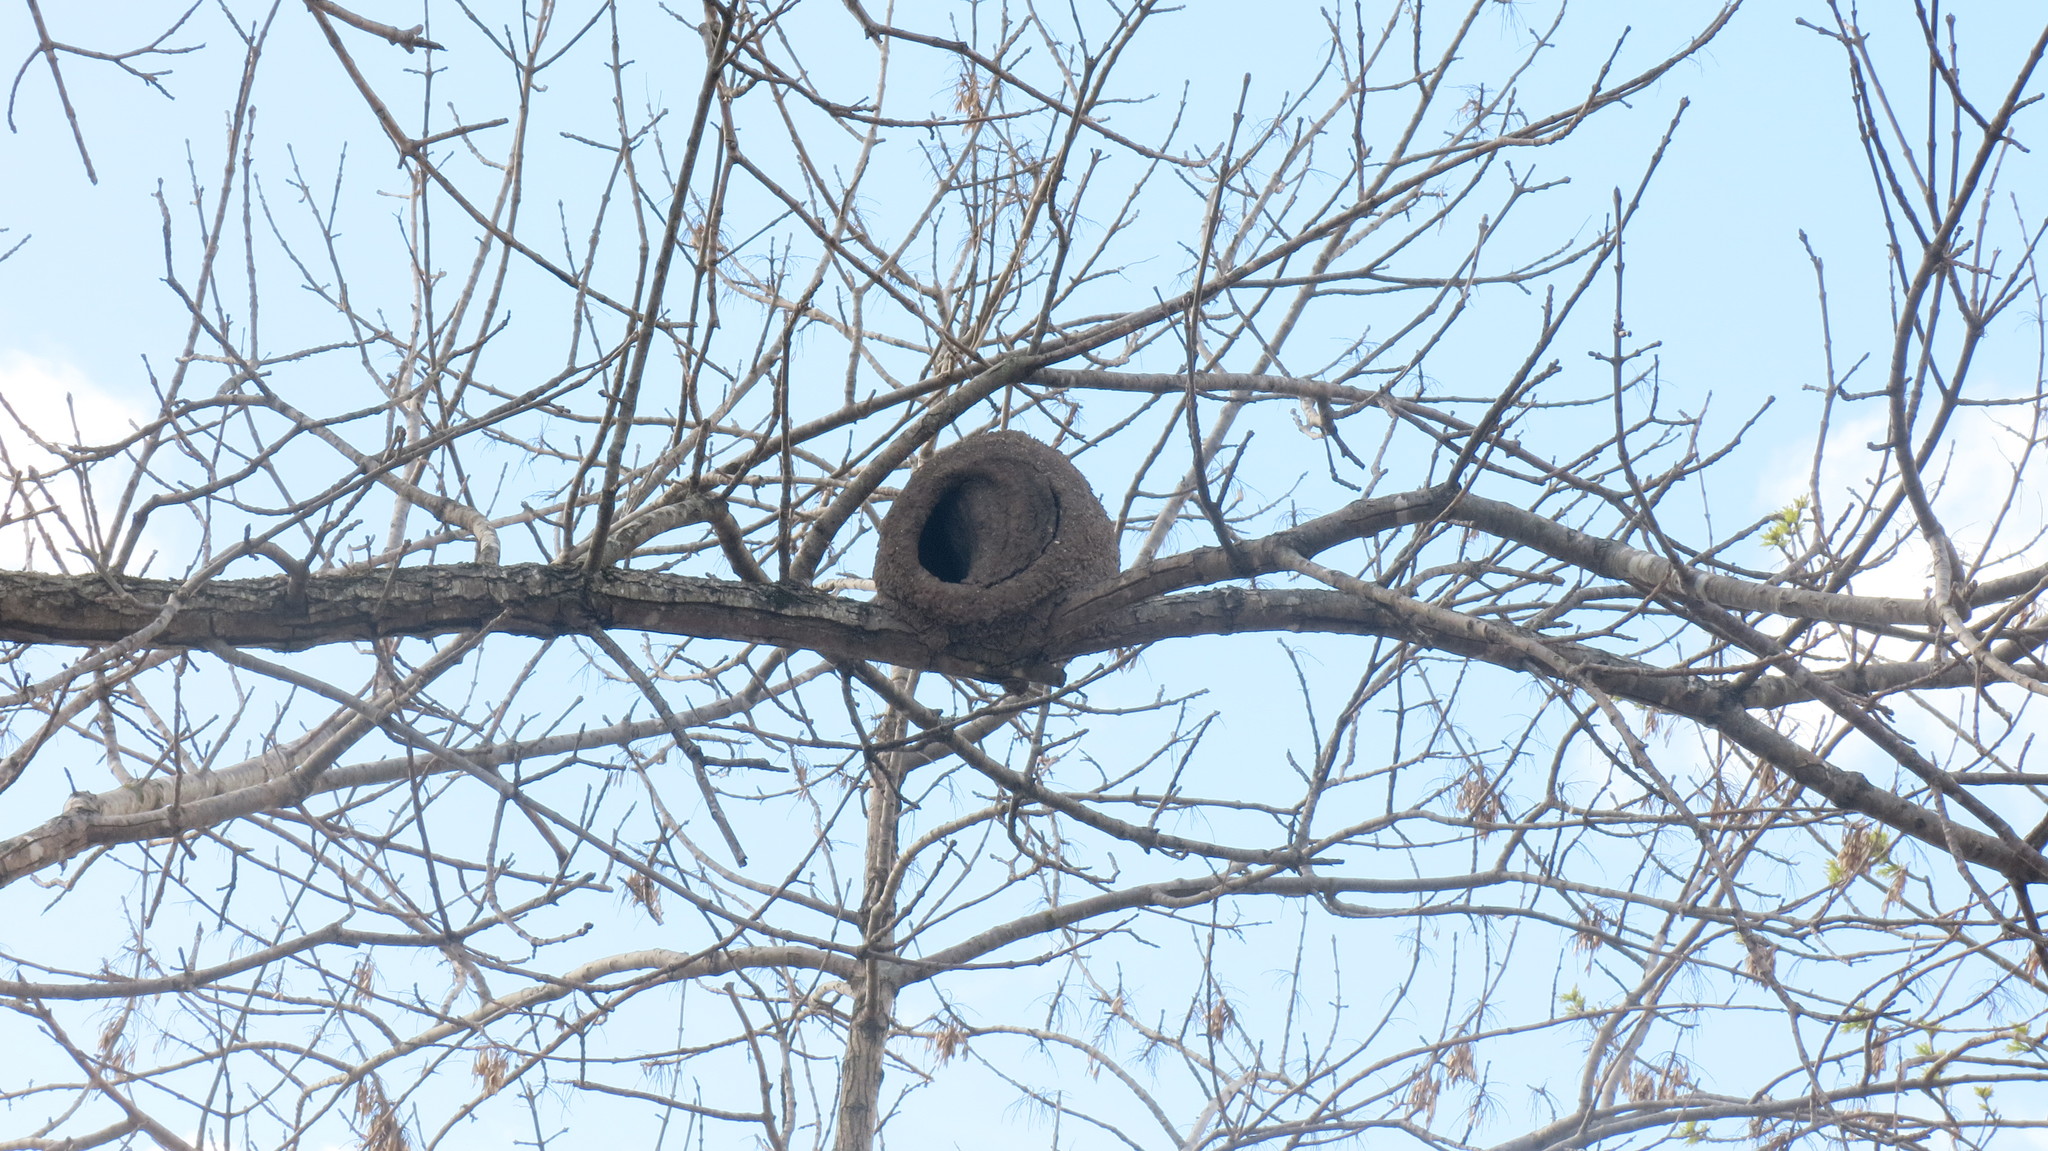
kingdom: Animalia
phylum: Chordata
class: Aves
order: Passeriformes
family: Furnariidae
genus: Furnarius
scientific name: Furnarius rufus
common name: Rufous hornero
